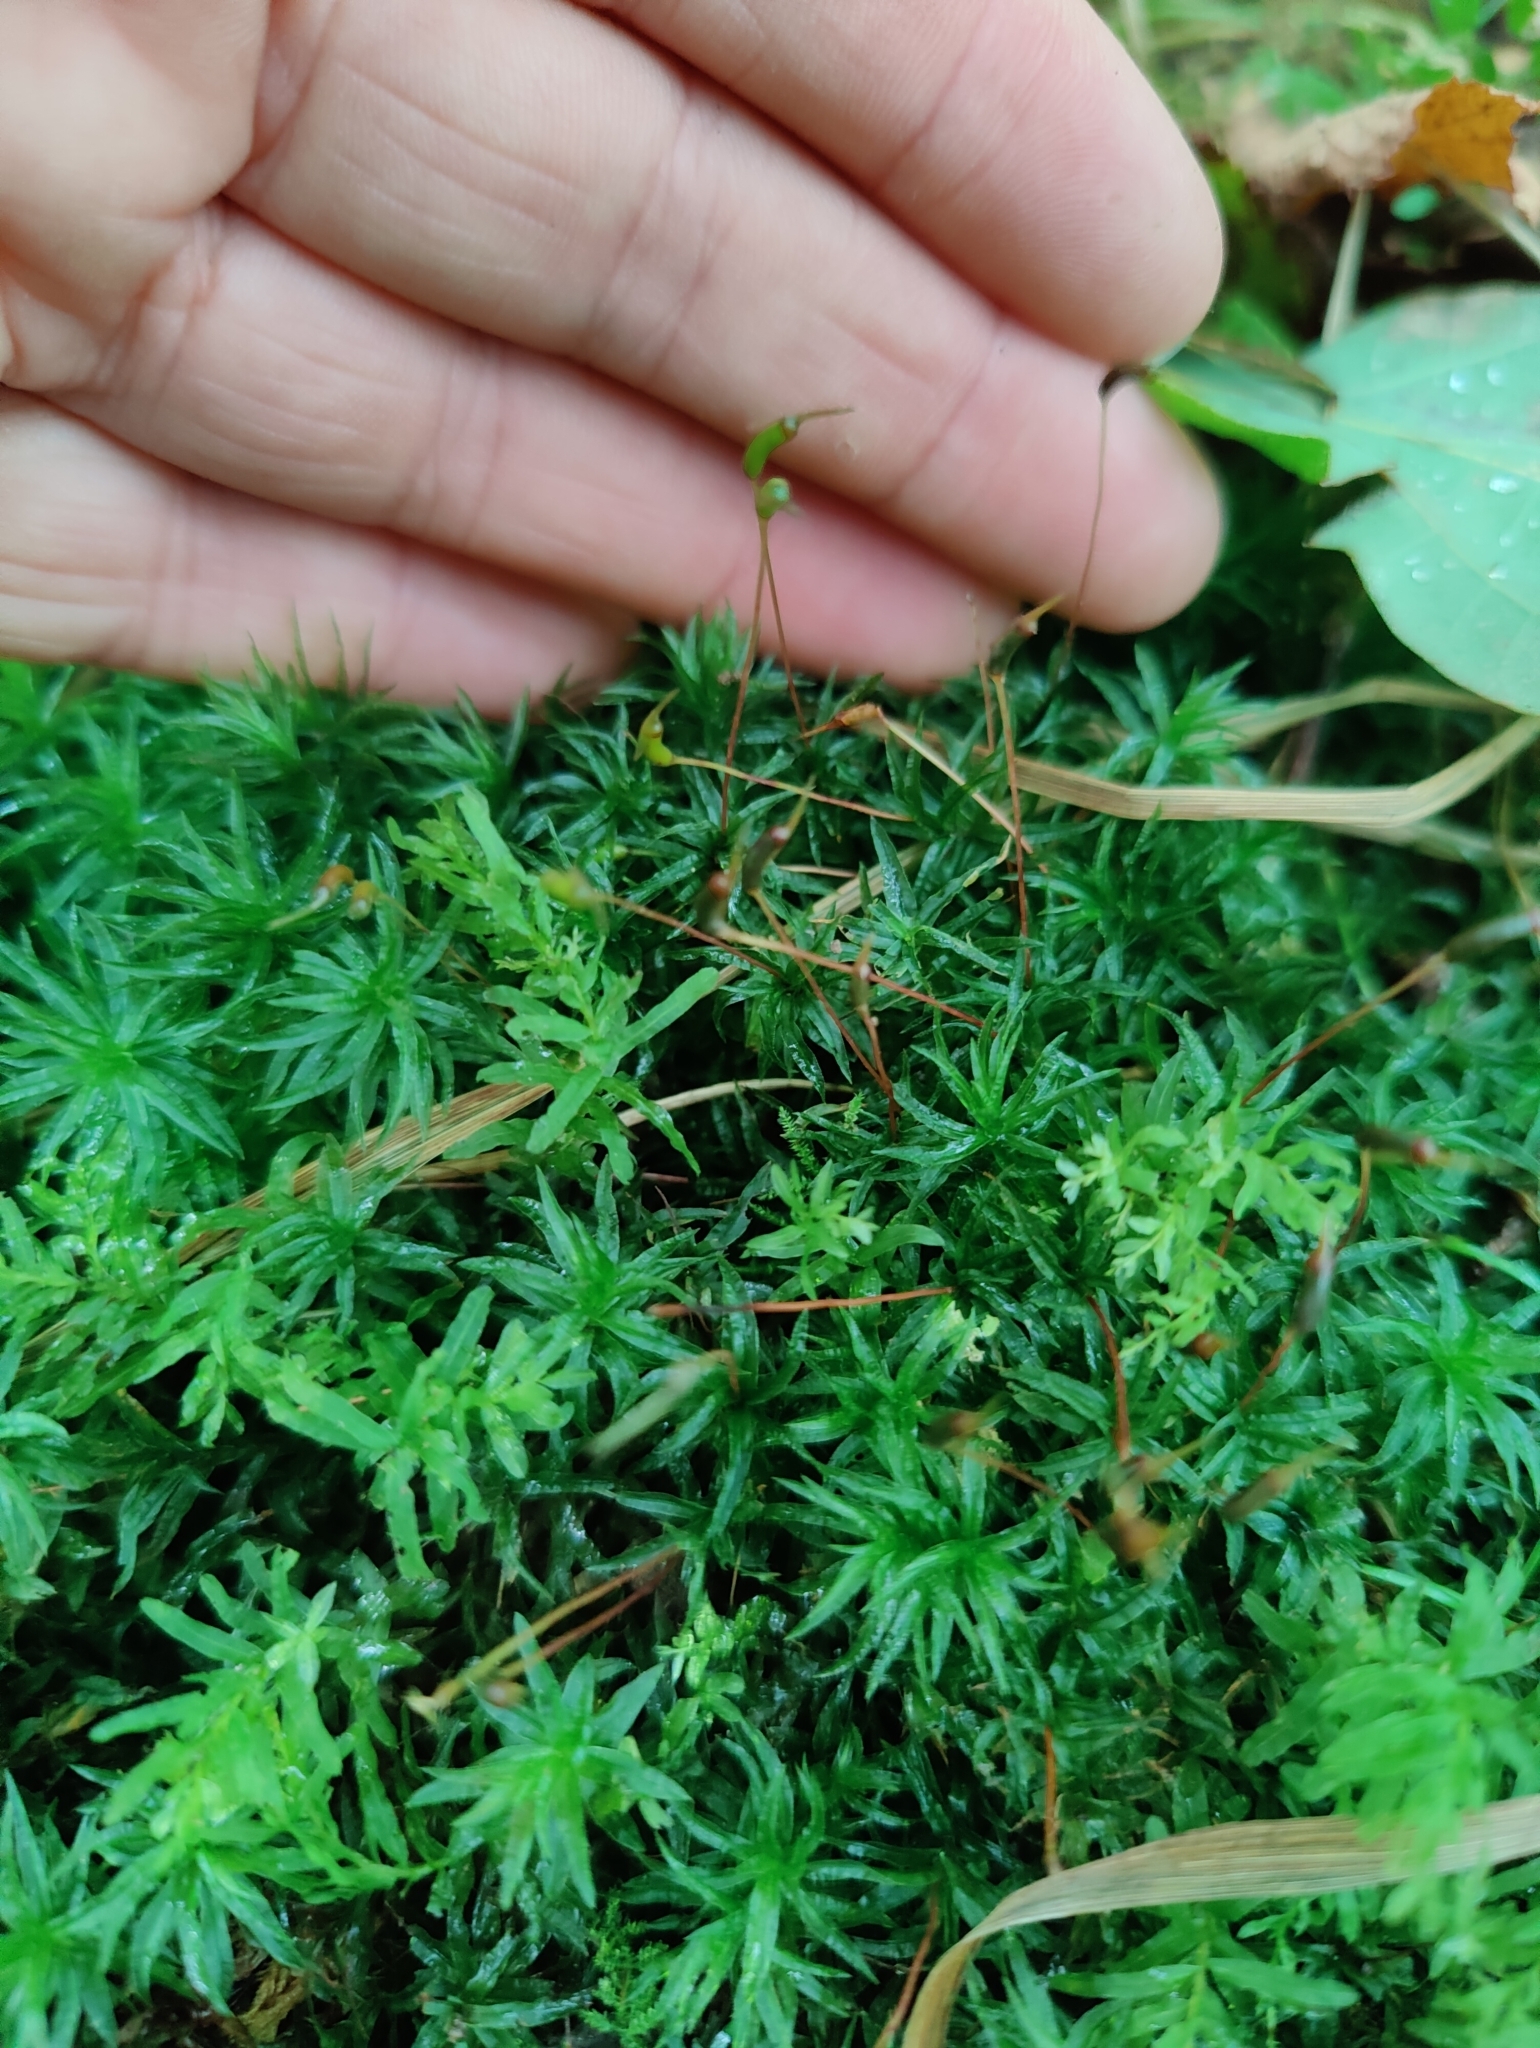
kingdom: Plantae
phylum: Bryophyta
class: Polytrichopsida
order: Polytrichales
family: Polytrichaceae
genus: Atrichum
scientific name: Atrichum undulatum
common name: Common smoothcap
